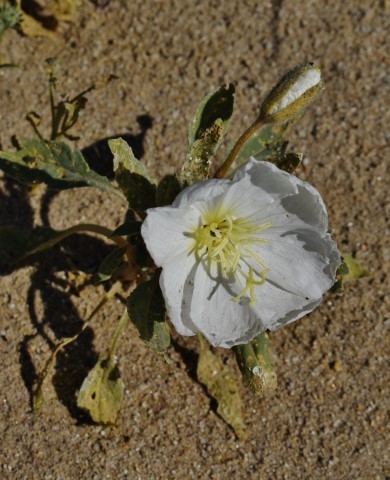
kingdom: Plantae
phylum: Tracheophyta
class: Magnoliopsida
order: Myrtales
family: Onagraceae
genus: Oenothera
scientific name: Oenothera deltoides
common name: Basket evening-primrose
